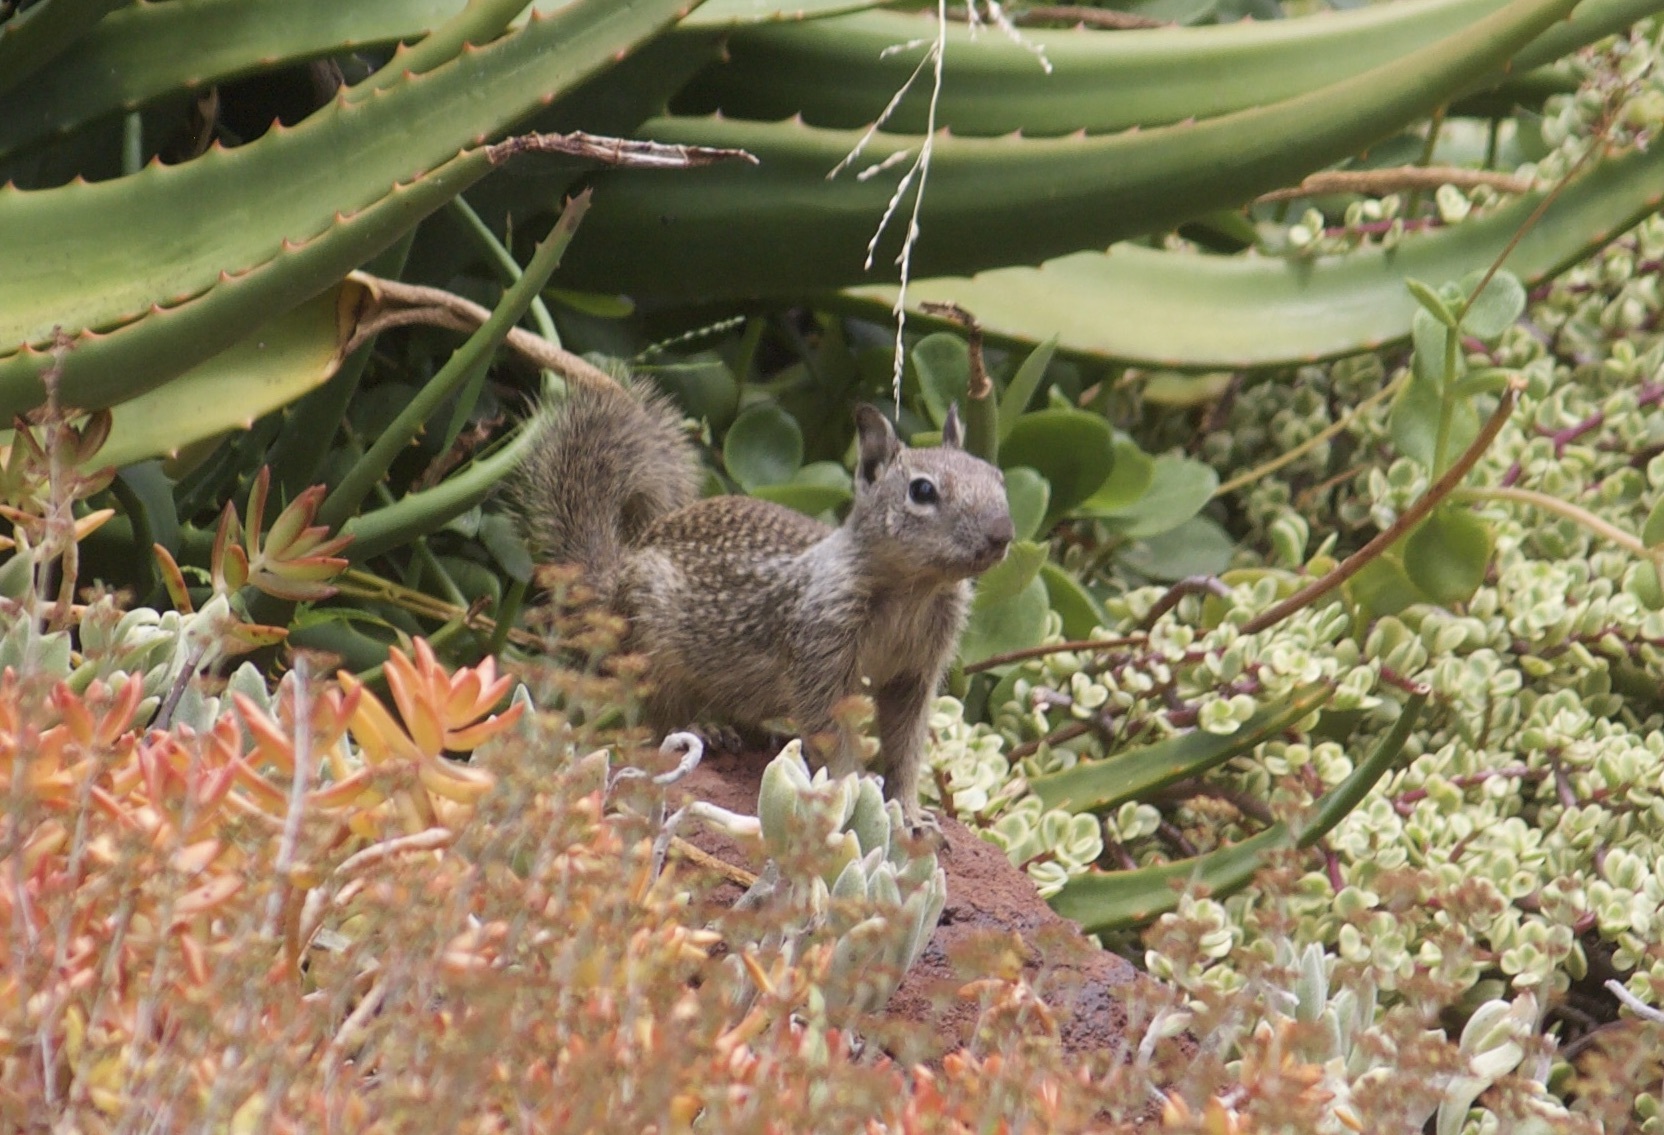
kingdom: Animalia
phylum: Chordata
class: Mammalia
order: Rodentia
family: Sciuridae
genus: Otospermophilus
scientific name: Otospermophilus beecheyi
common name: California ground squirrel
